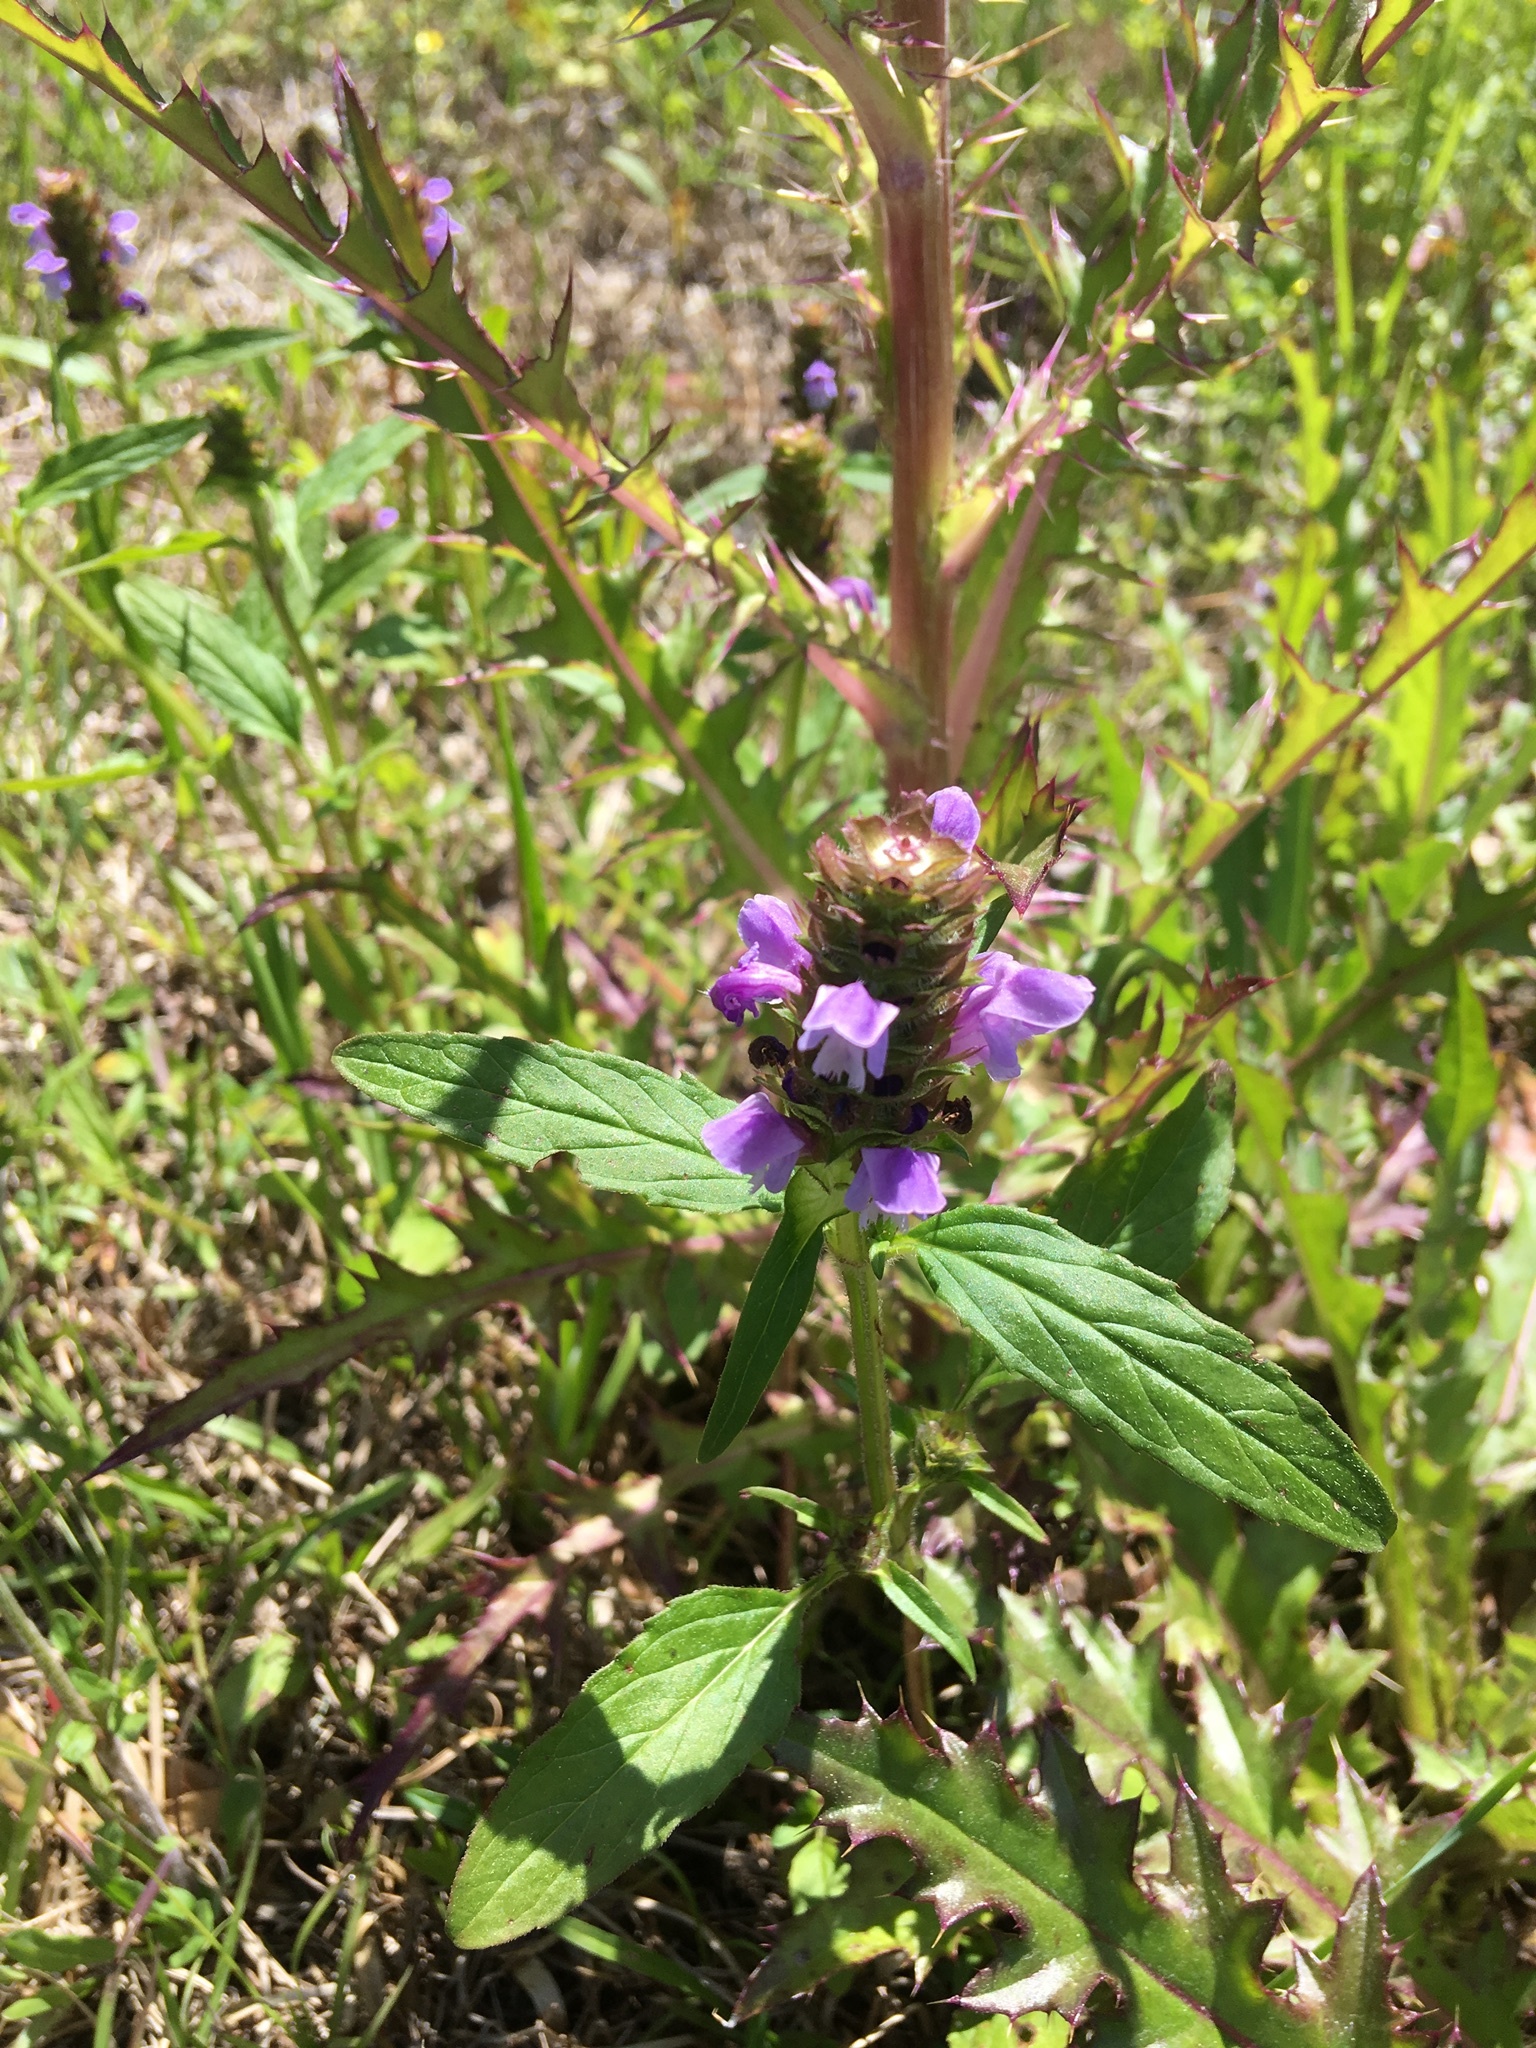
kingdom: Plantae
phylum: Tracheophyta
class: Magnoliopsida
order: Lamiales
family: Lamiaceae
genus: Prunella
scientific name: Prunella vulgaris
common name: Heal-all
